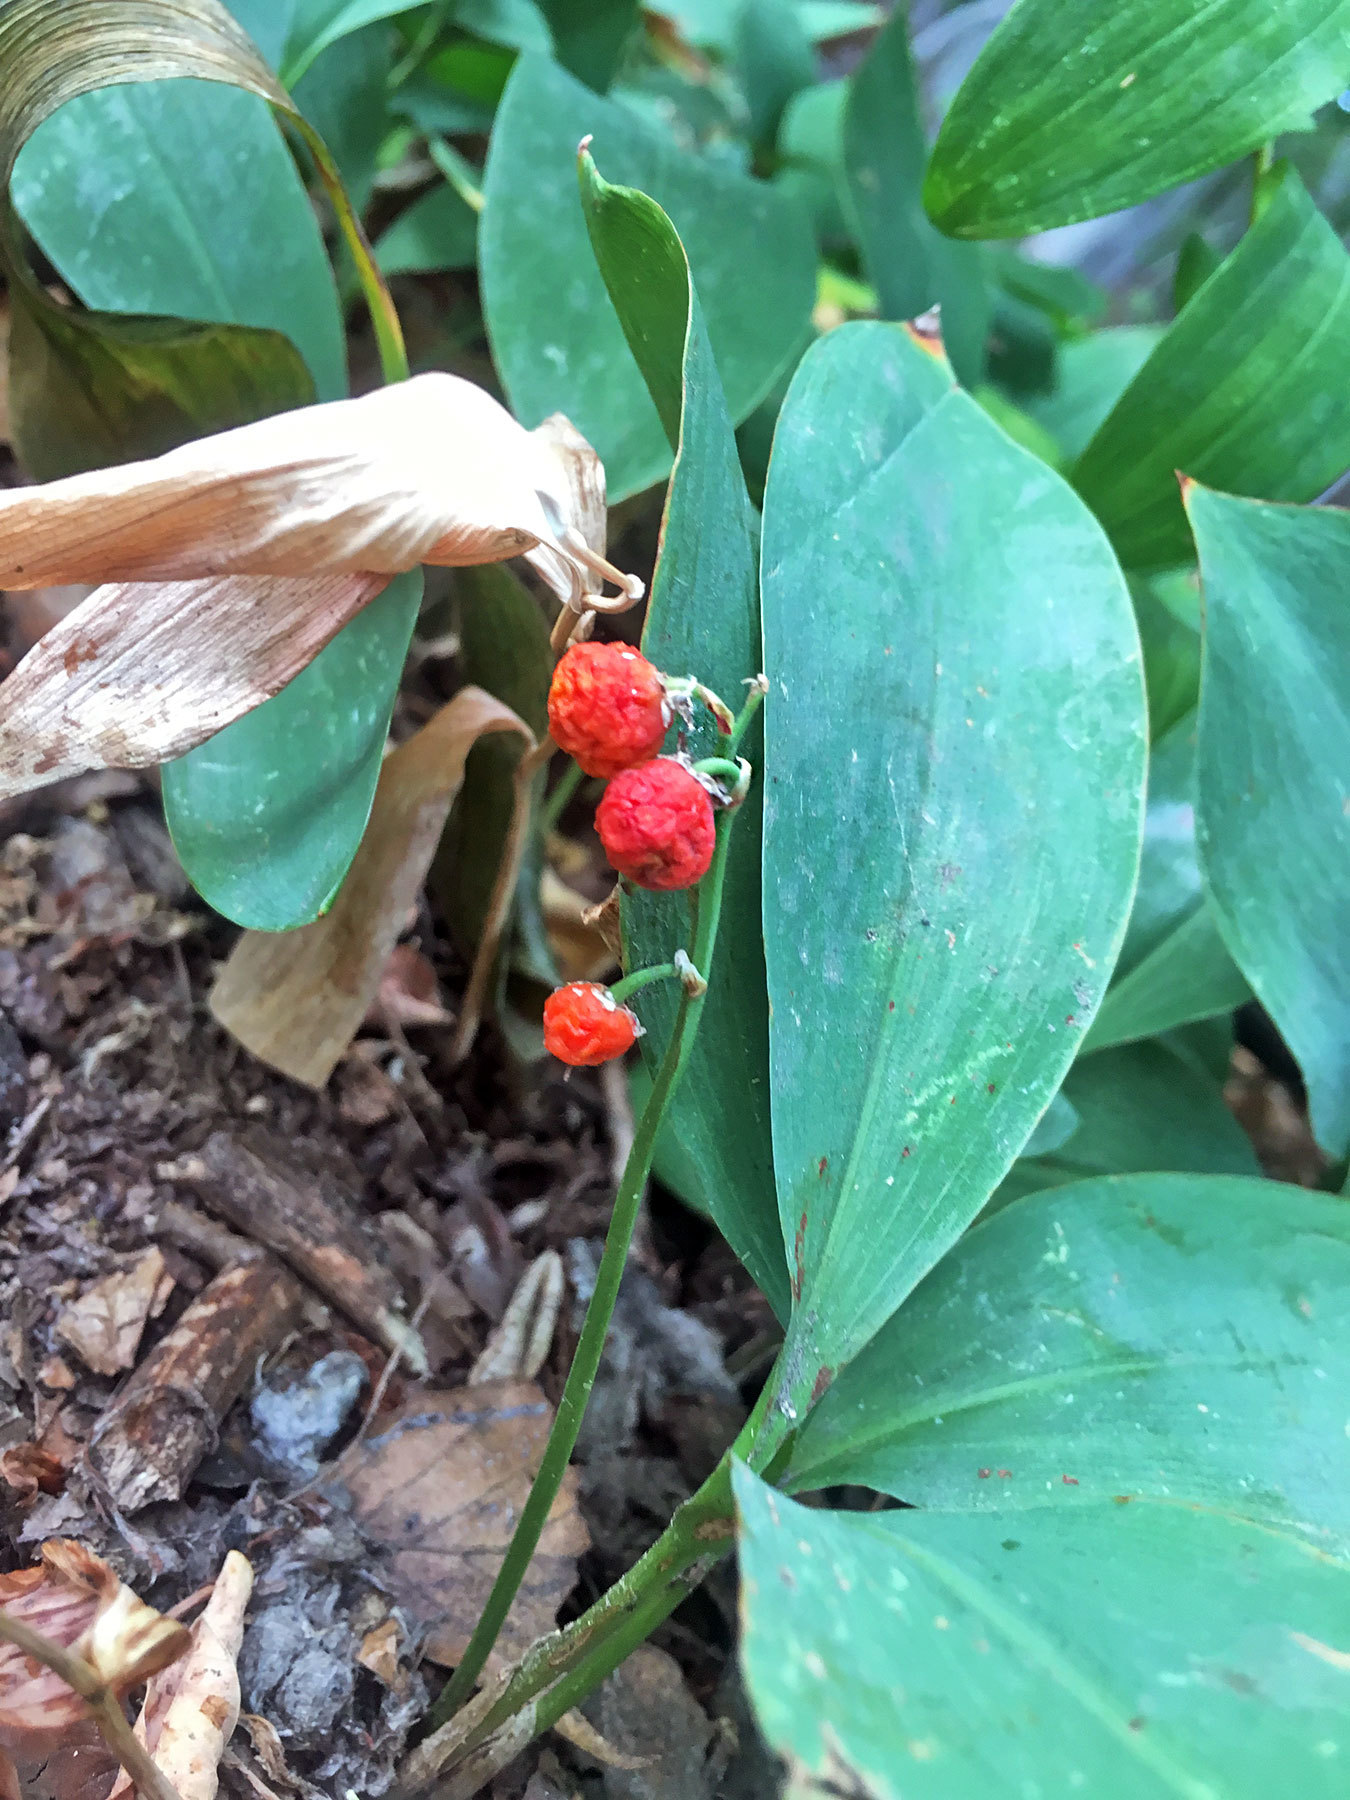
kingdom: Plantae
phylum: Tracheophyta
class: Liliopsida
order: Asparagales
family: Asparagaceae
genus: Convallaria
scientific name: Convallaria majalis
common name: Lily-of-the-valley
